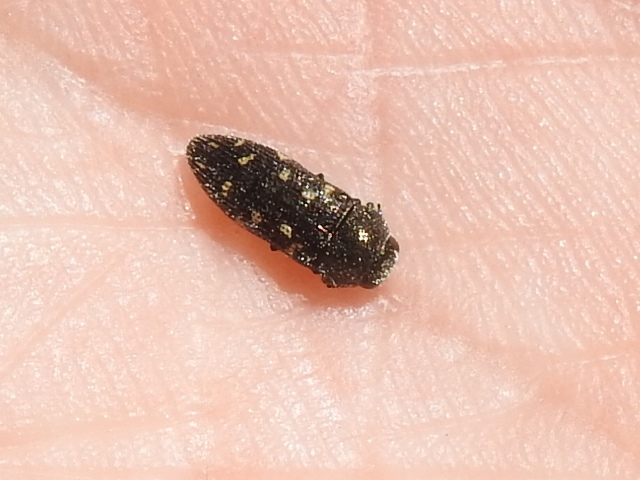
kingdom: Animalia
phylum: Arthropoda
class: Insecta
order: Coleoptera
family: Buprestidae
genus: Acmaeodera
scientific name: Acmaeodera tubulus
